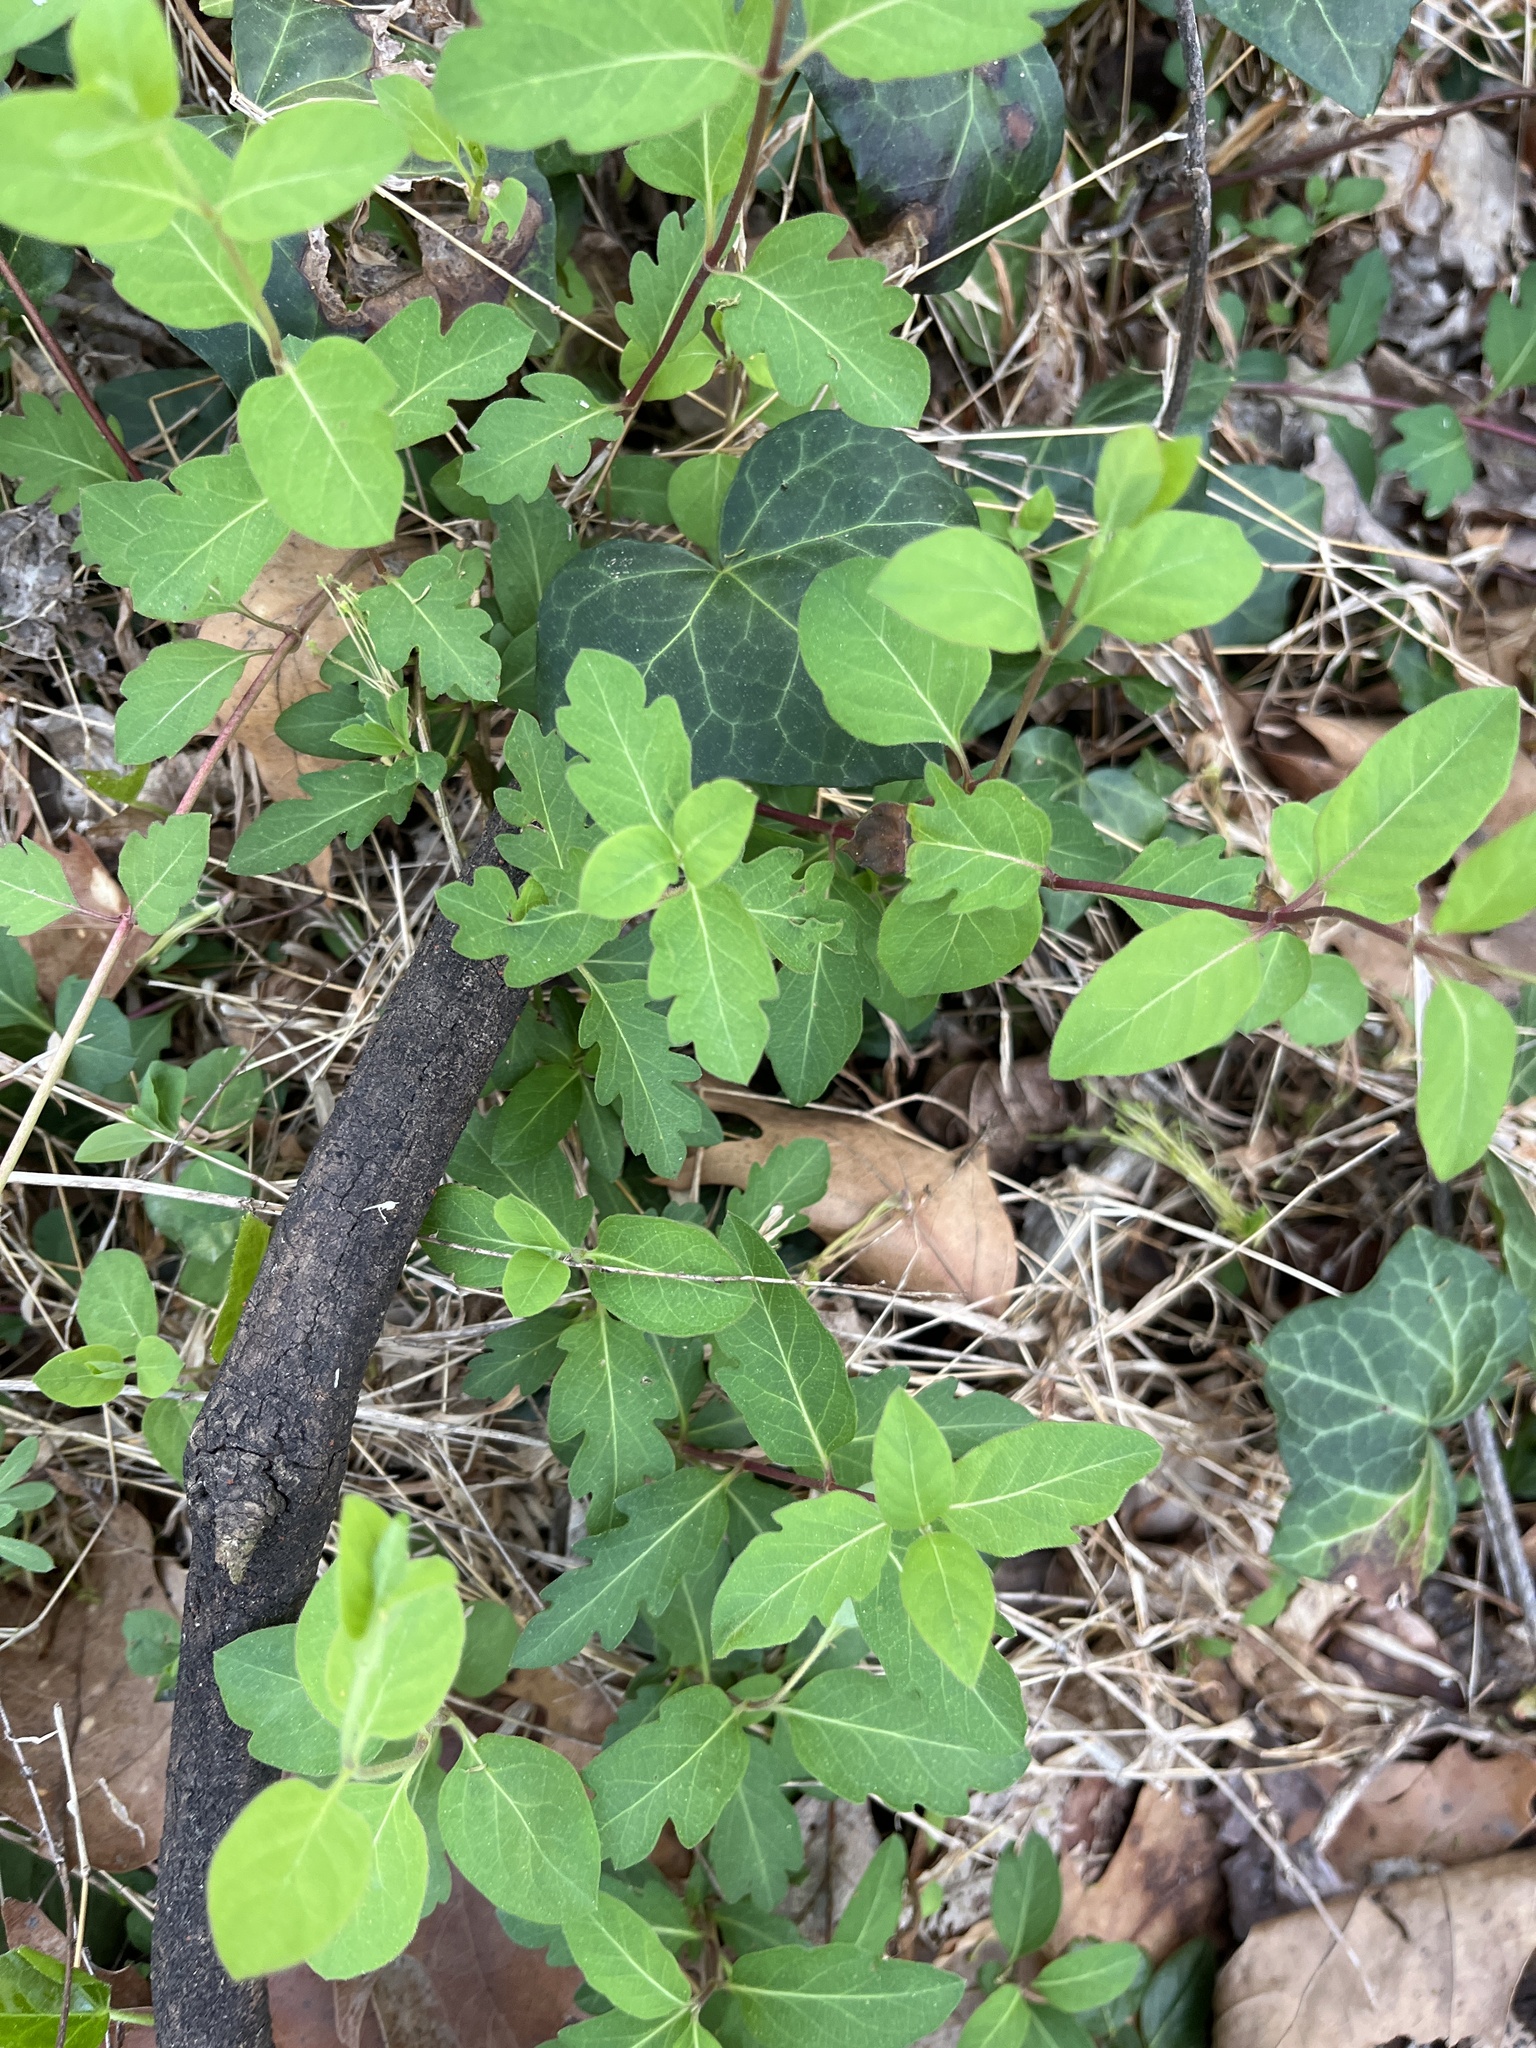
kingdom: Plantae
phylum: Tracheophyta
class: Magnoliopsida
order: Dipsacales
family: Caprifoliaceae
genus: Lonicera
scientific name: Lonicera japonica
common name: Japanese honeysuckle
